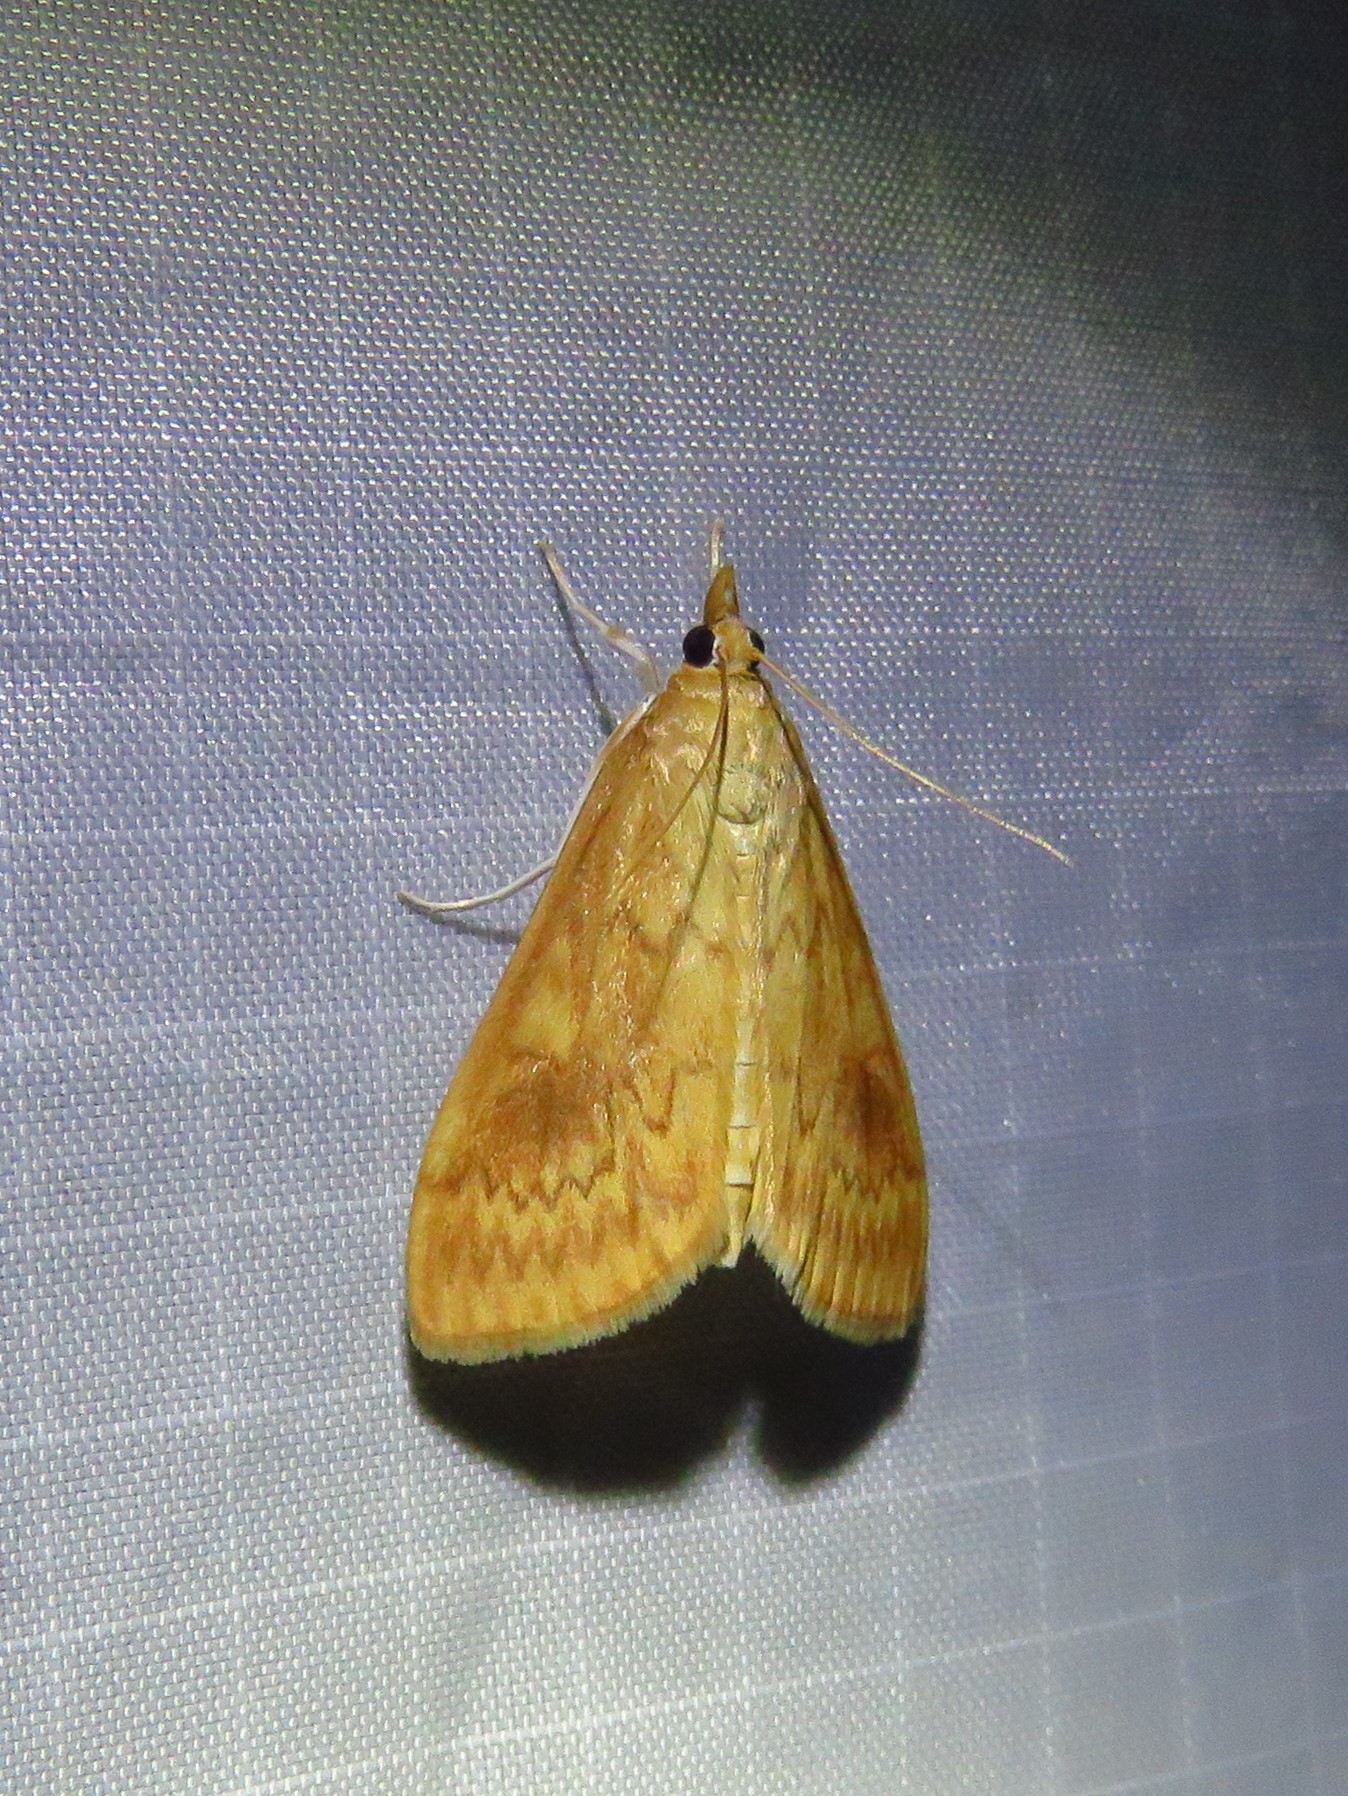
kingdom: Animalia
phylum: Arthropoda
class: Insecta
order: Lepidoptera
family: Crambidae
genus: Ostrinia
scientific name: Ostrinia penitalis
